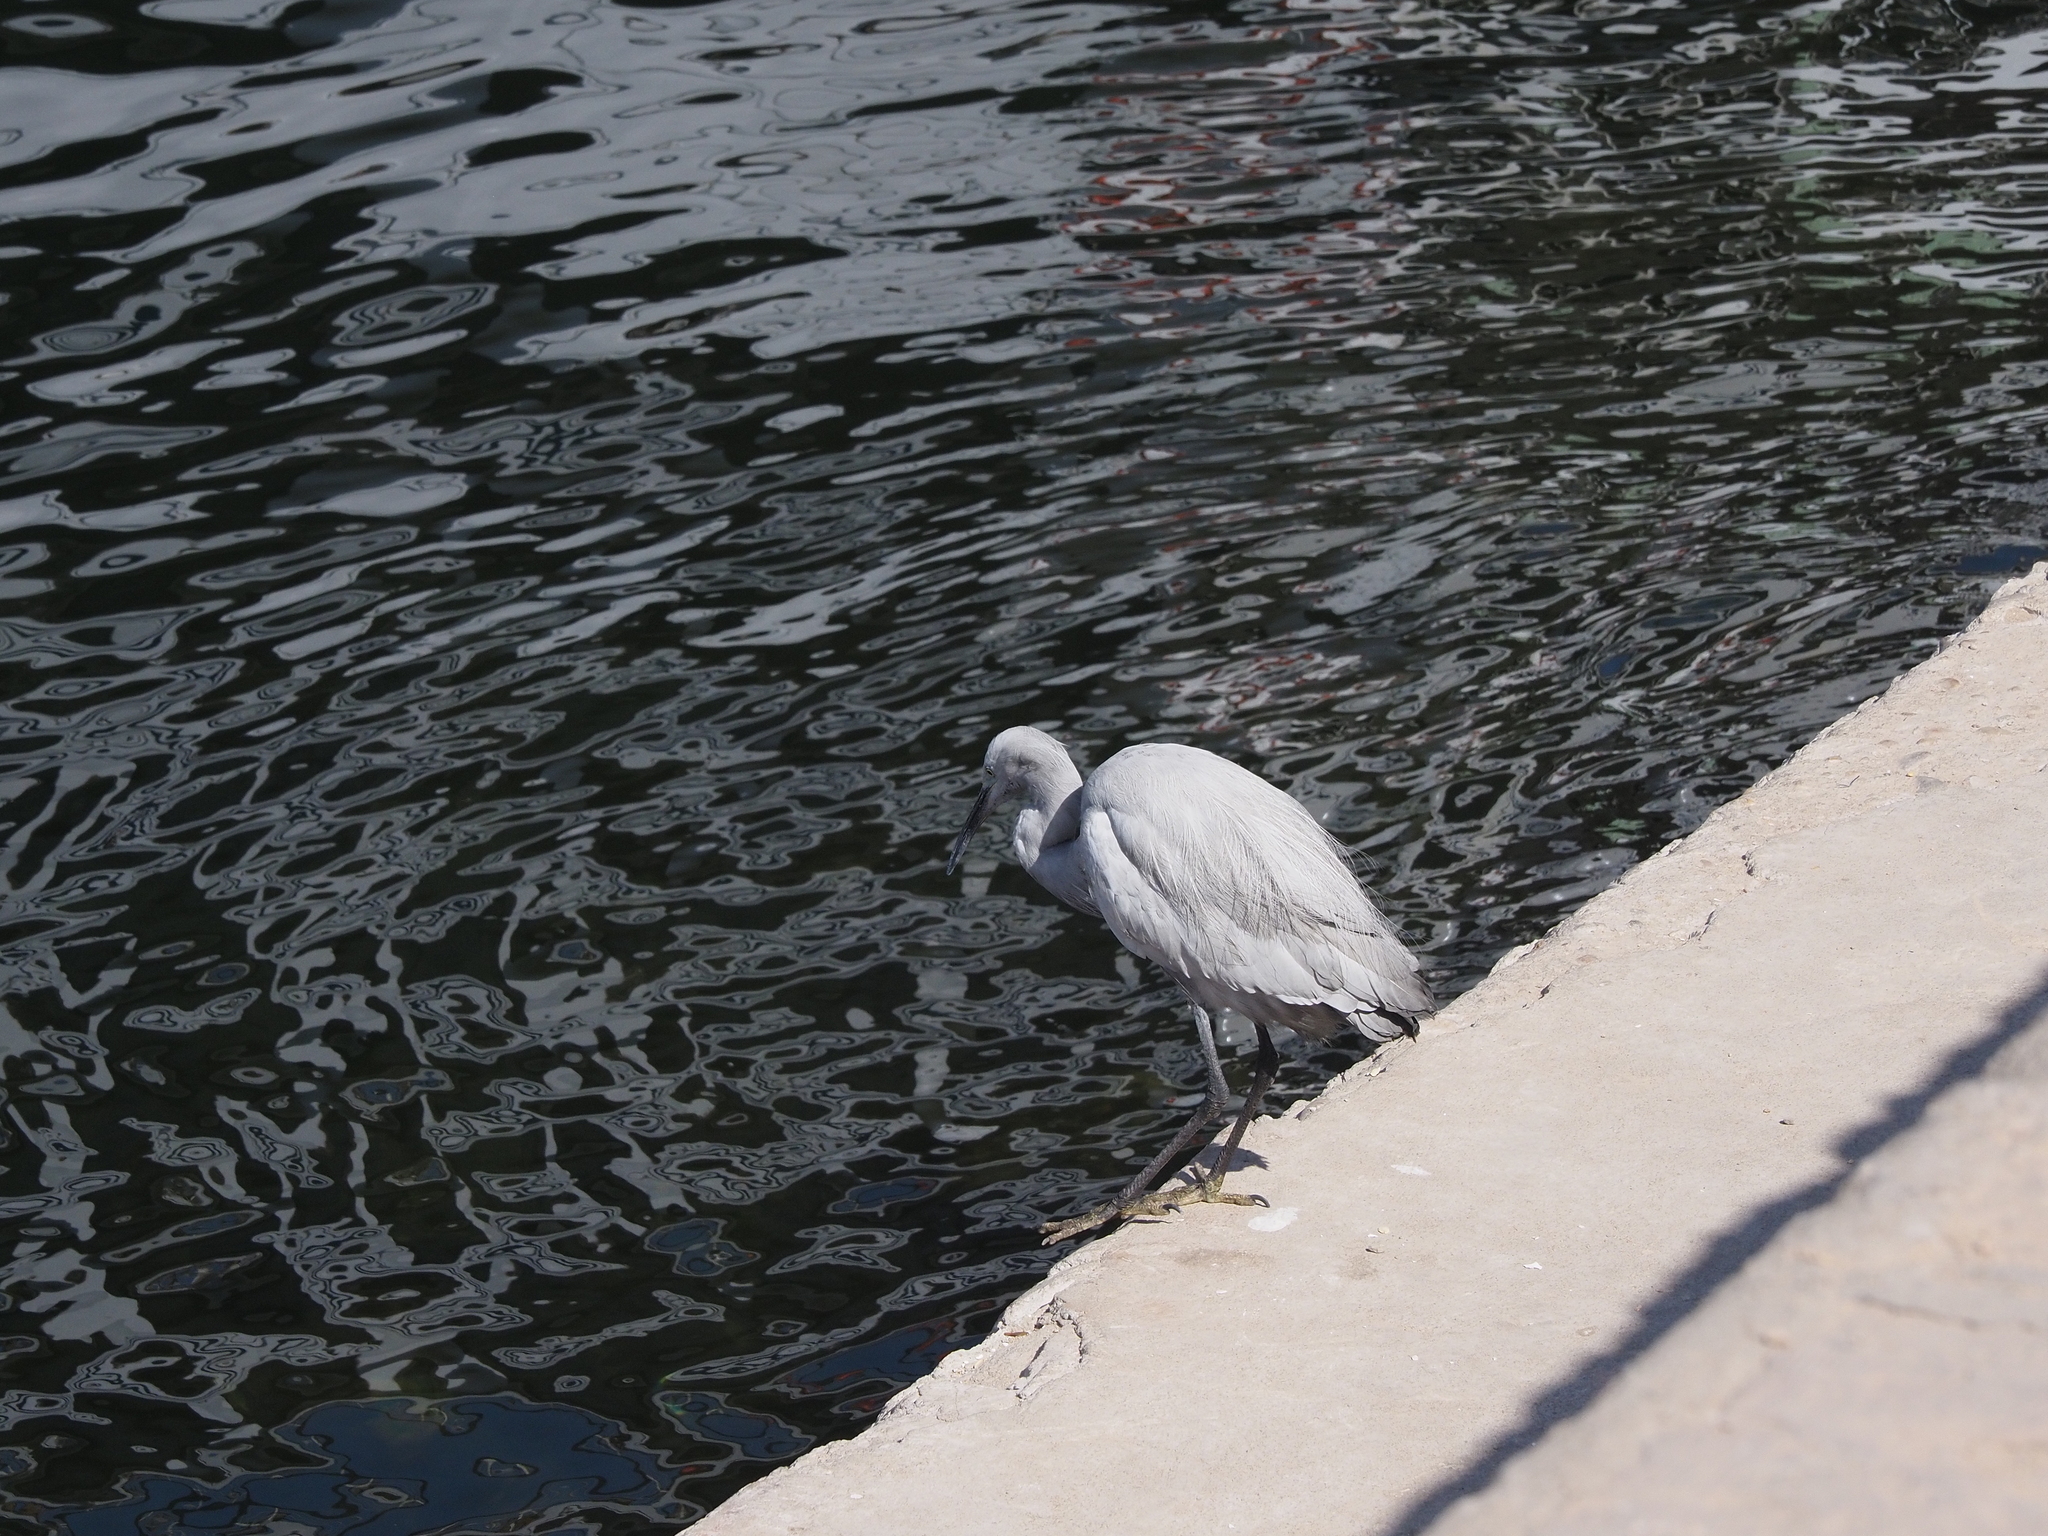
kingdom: Animalia
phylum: Chordata
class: Aves
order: Pelecaniformes
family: Ardeidae
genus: Egretta
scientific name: Egretta gularis
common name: Western reef-heron
